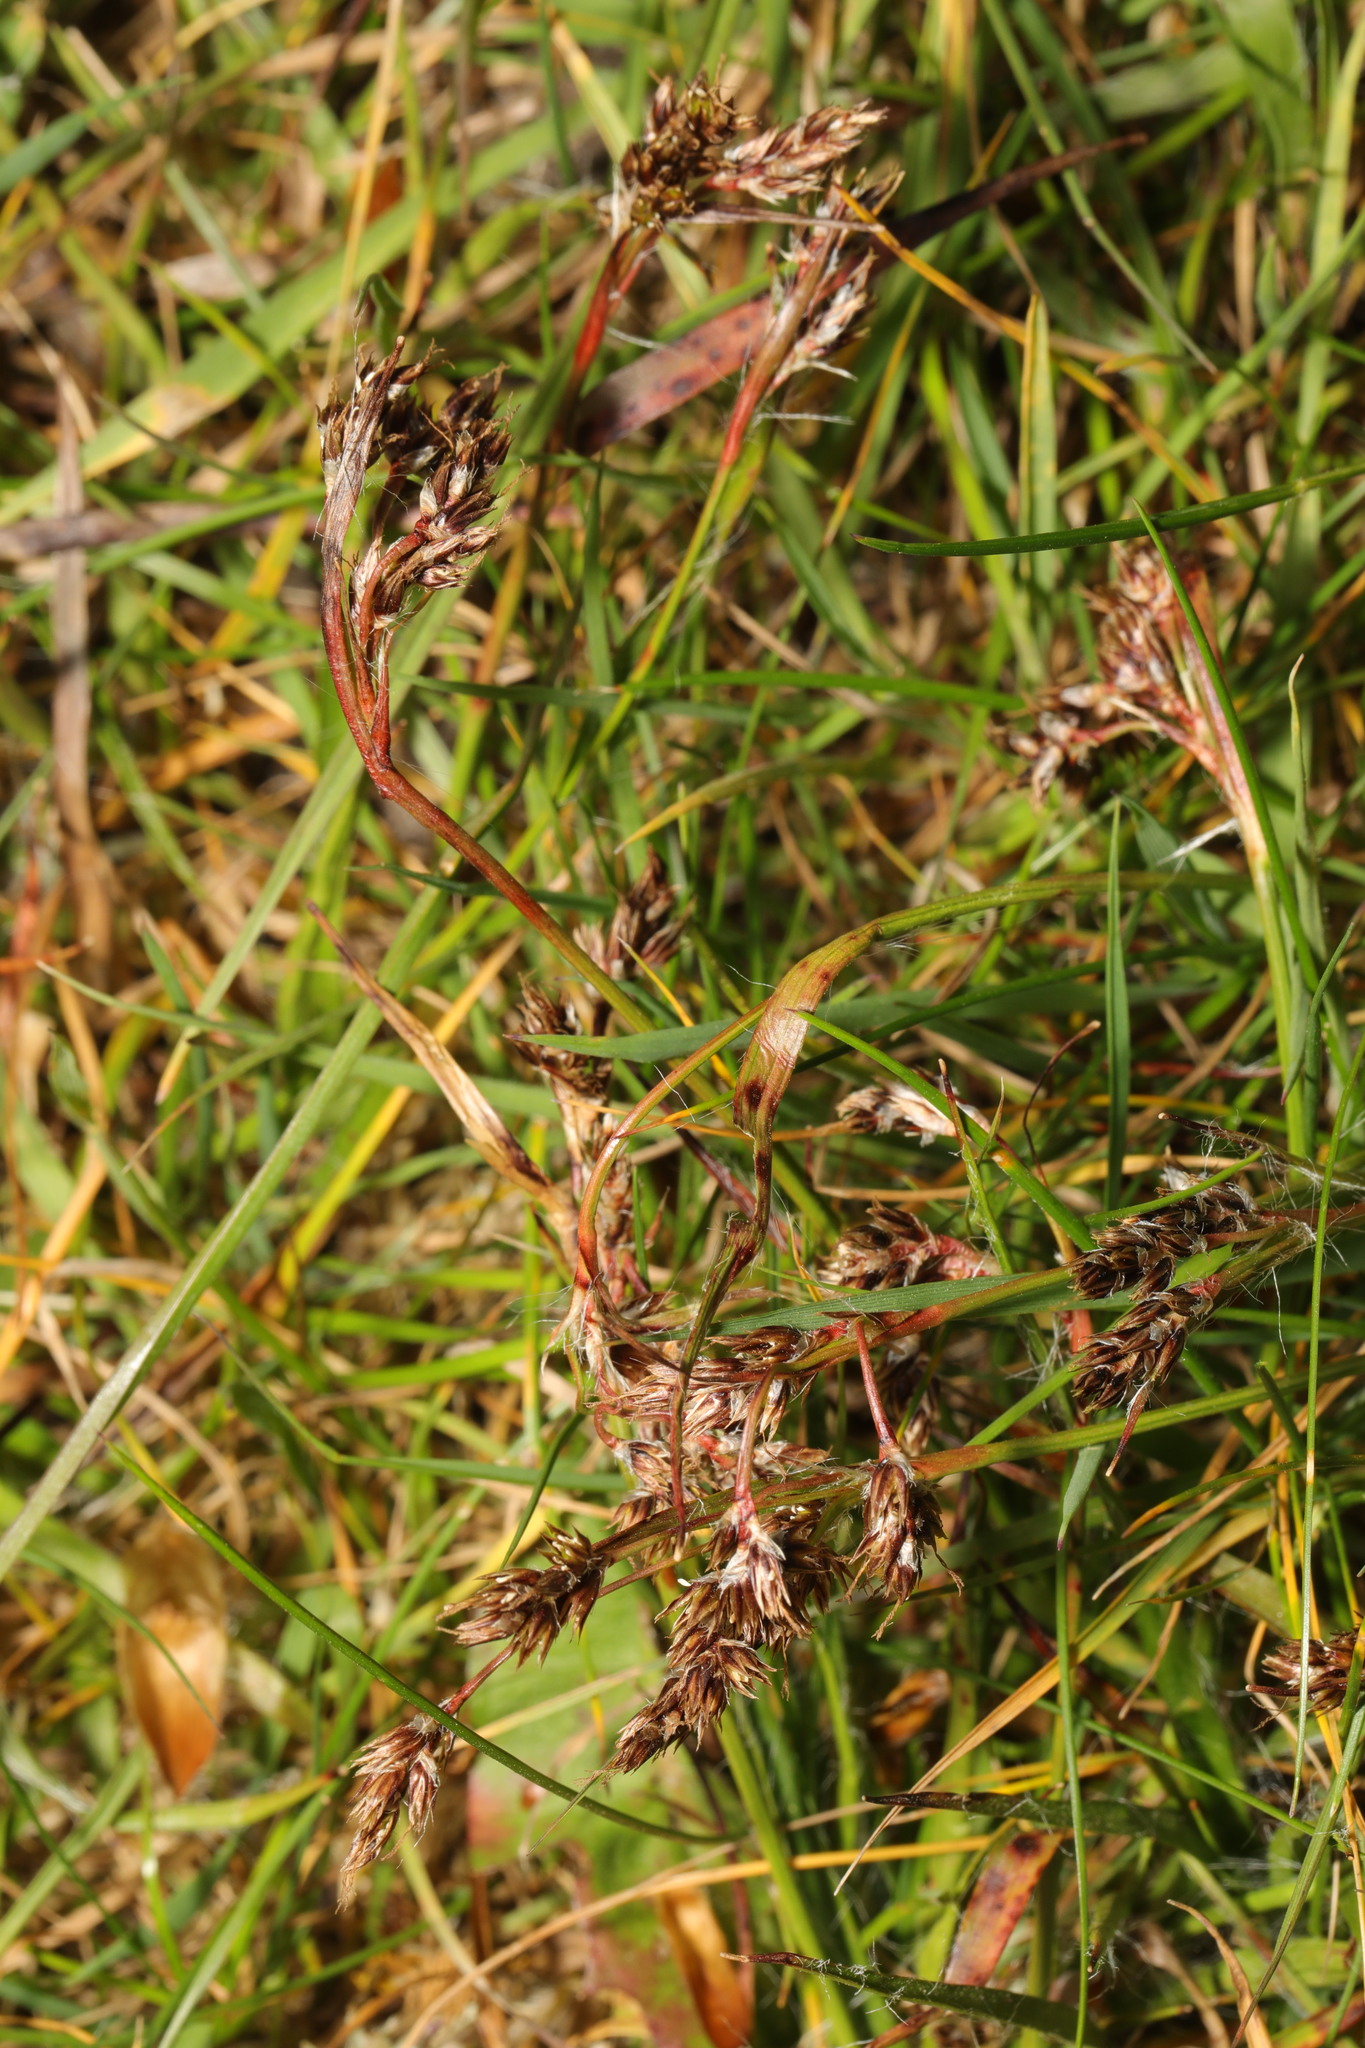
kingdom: Plantae
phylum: Tracheophyta
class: Liliopsida
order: Poales
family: Juncaceae
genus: Luzula
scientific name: Luzula campestris
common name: Field wood-rush
